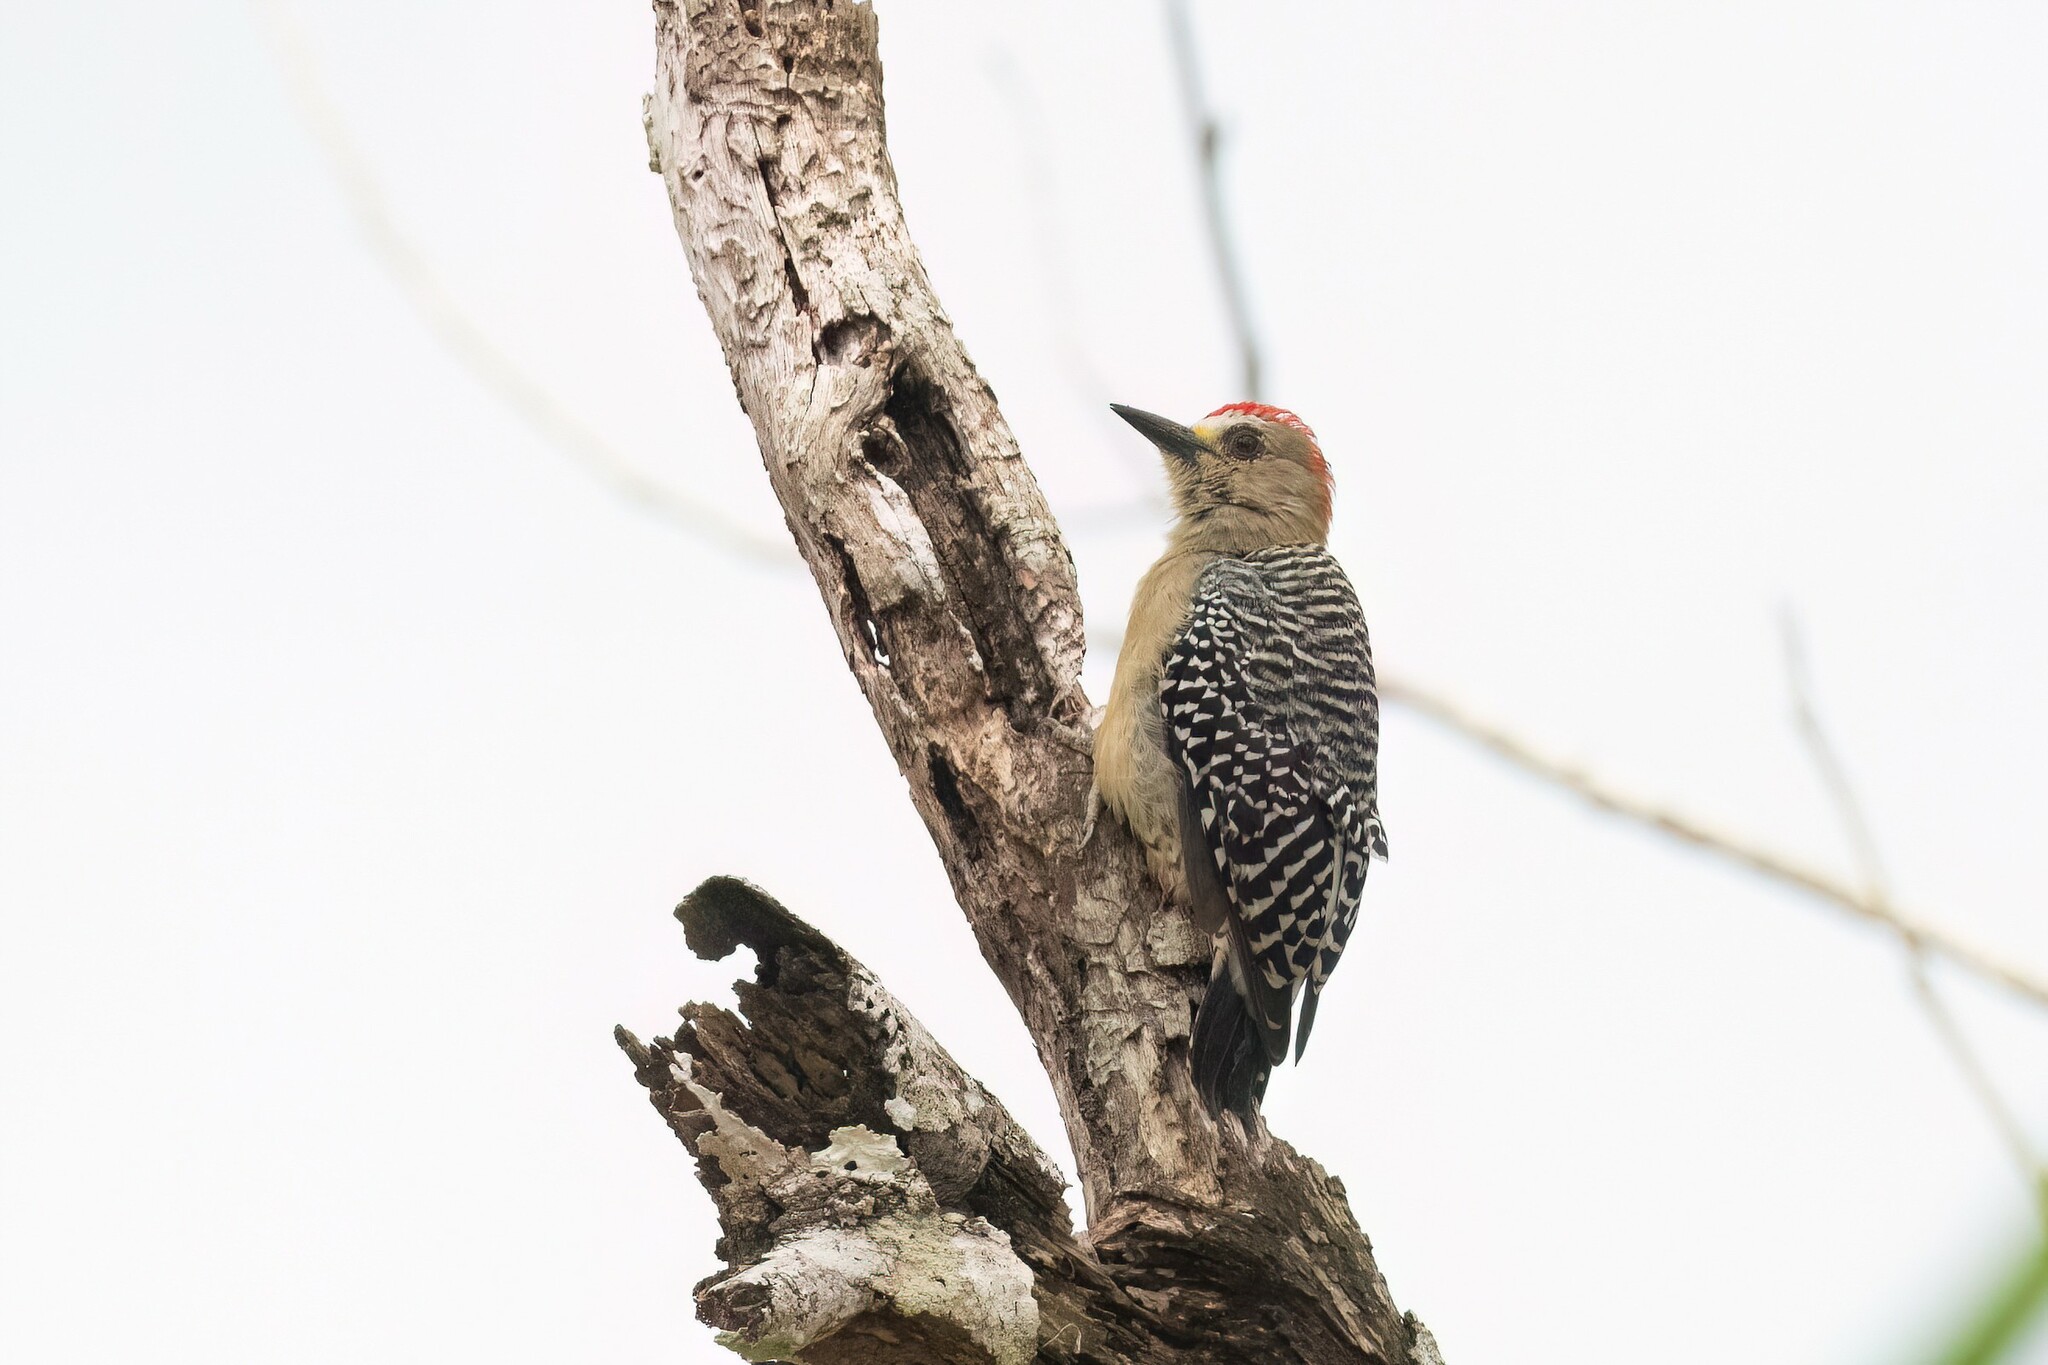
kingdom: Animalia
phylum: Chordata
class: Aves
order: Piciformes
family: Picidae
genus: Melanerpes
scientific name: Melanerpes rubricapillus
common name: Red-crowned woodpecker
